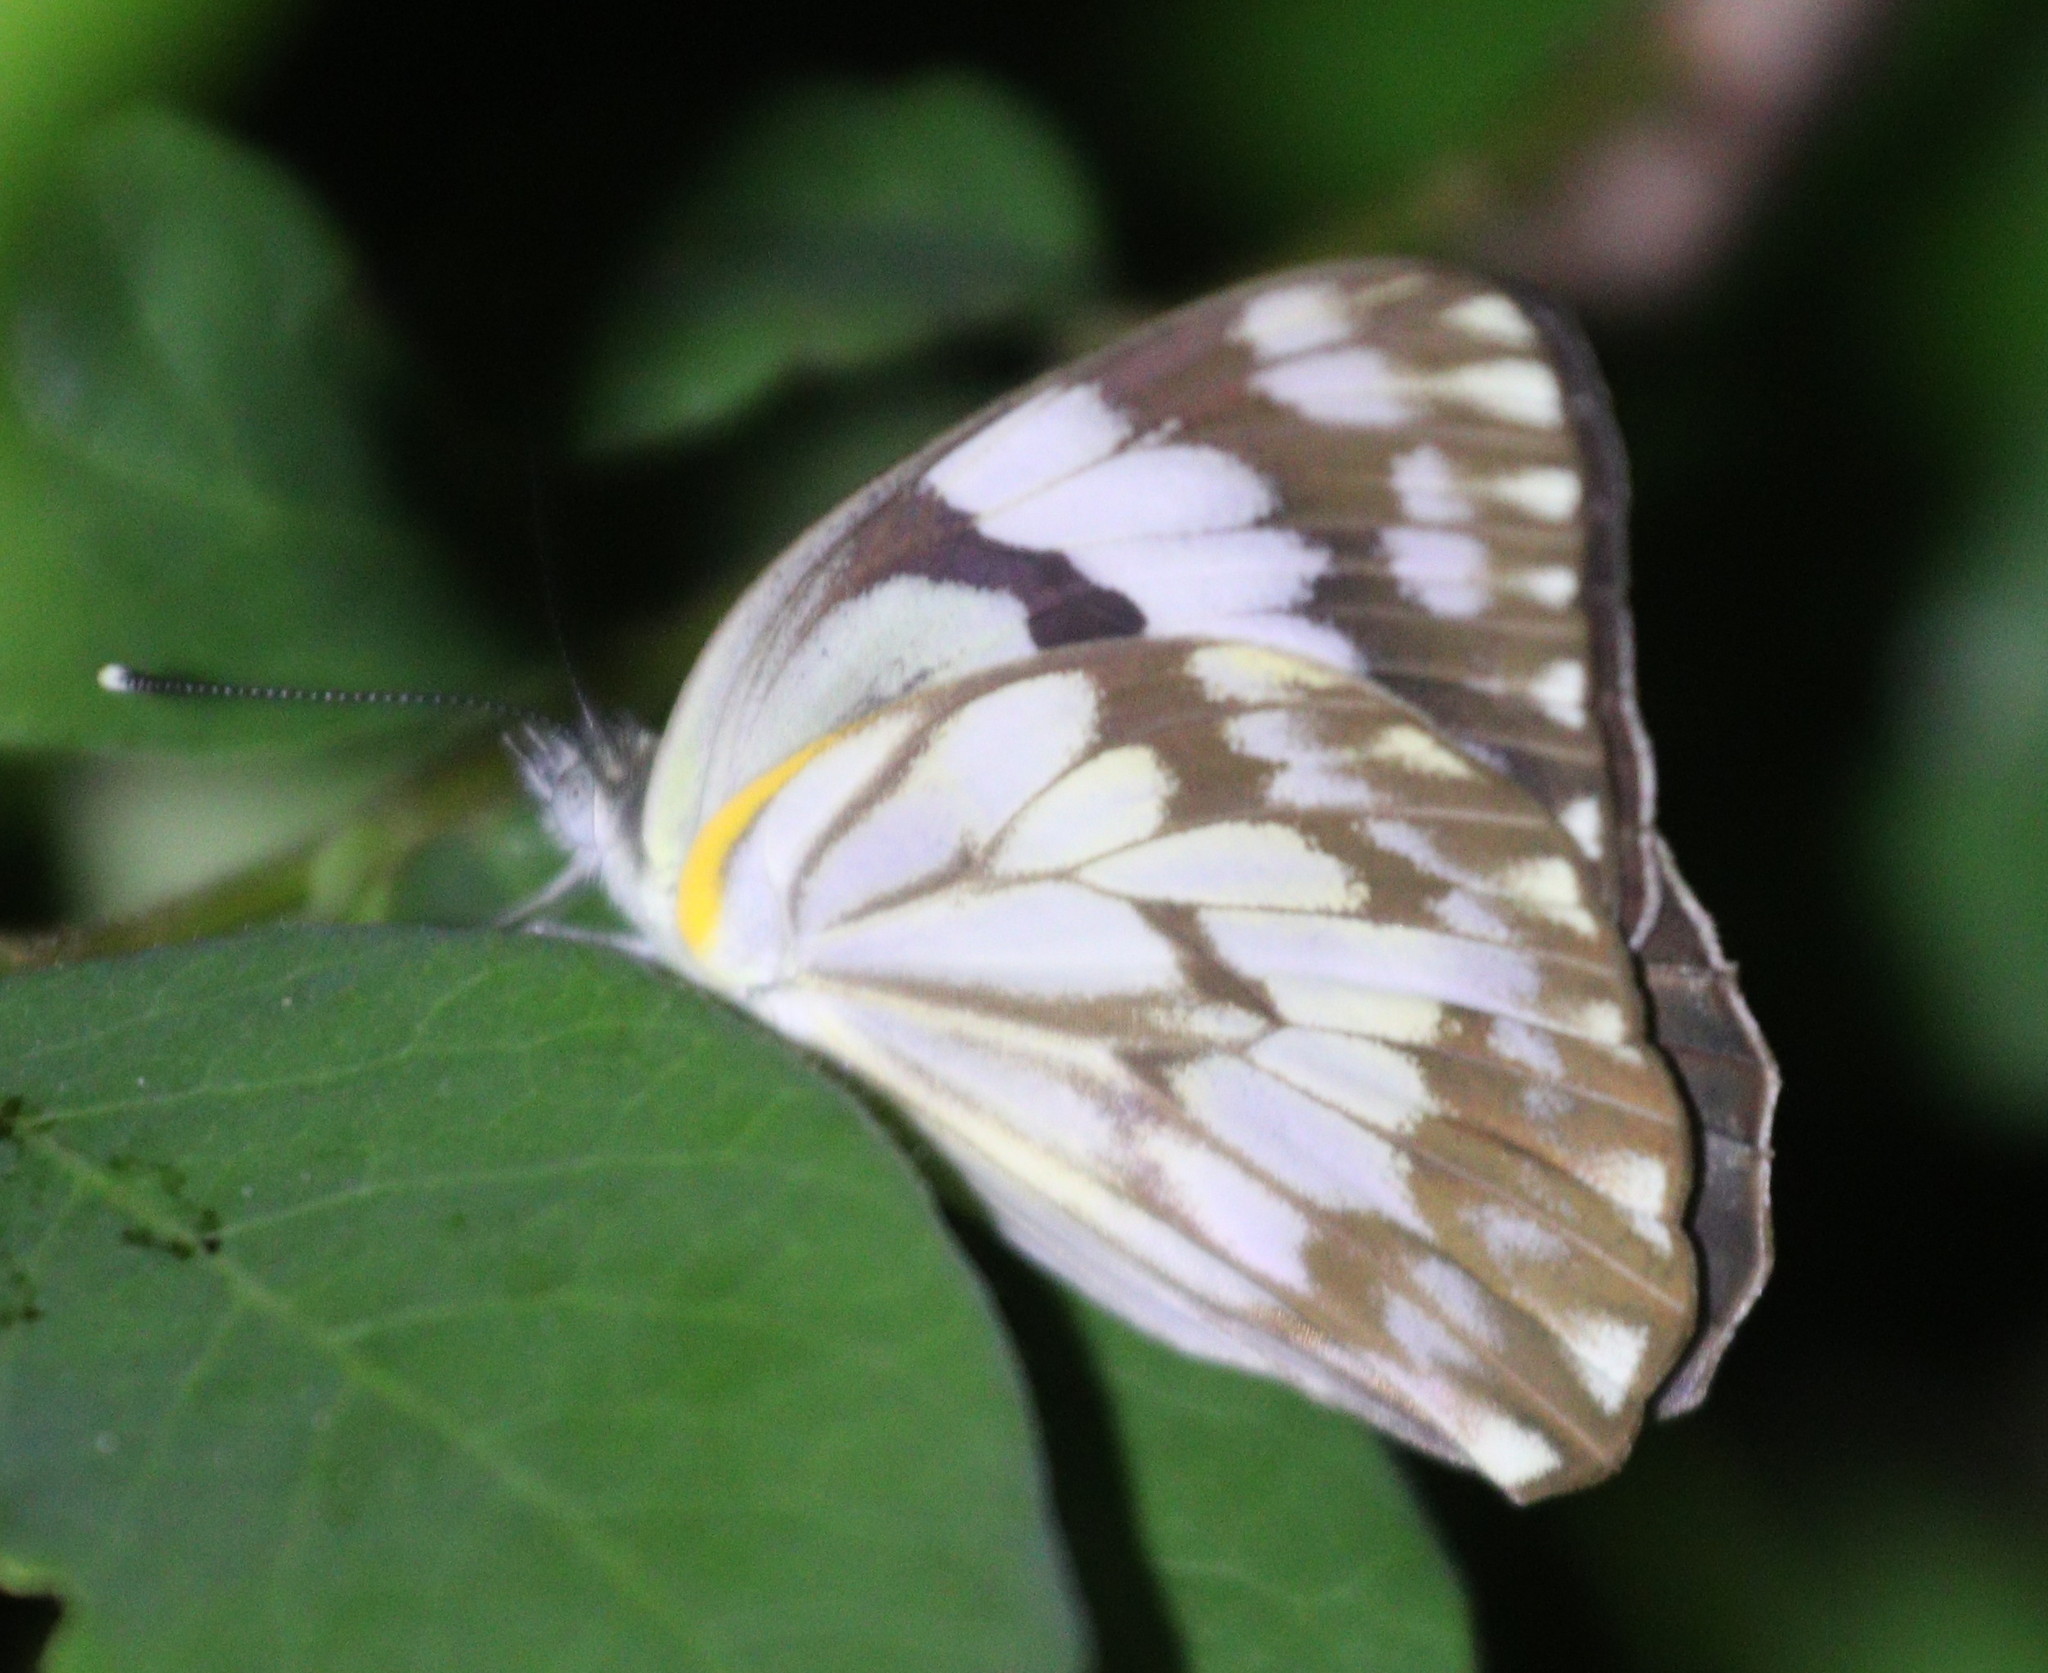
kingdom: Animalia
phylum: Arthropoda
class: Insecta
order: Lepidoptera
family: Pieridae
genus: Belenois
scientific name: Belenois gidica
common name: Pointed caper white
